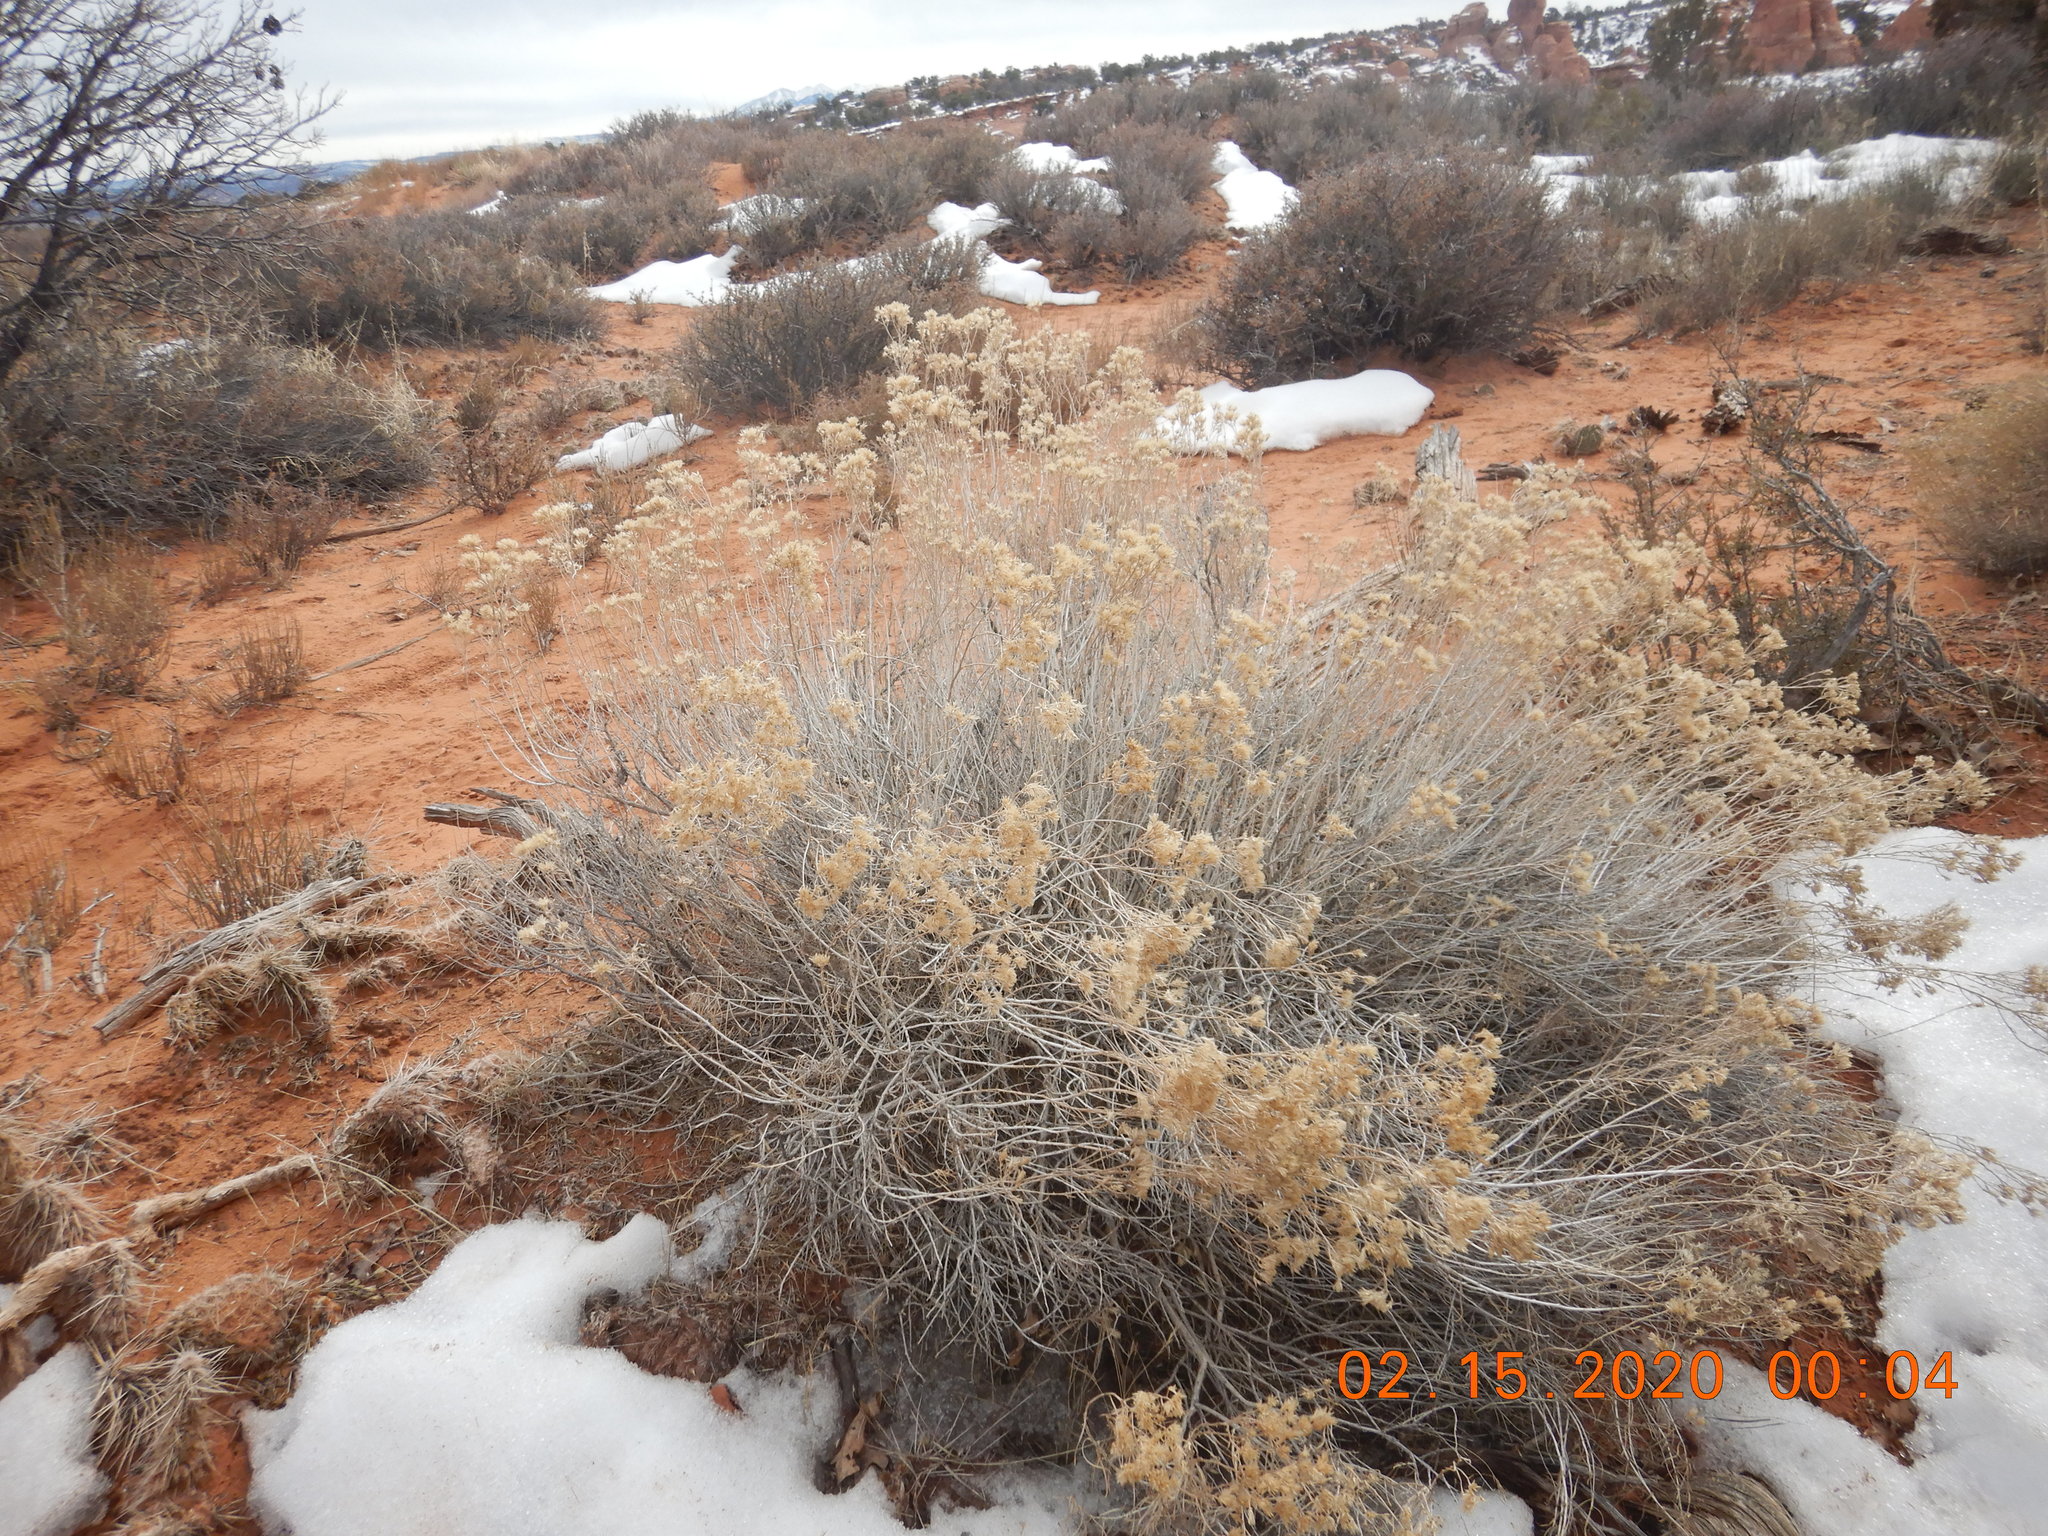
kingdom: Plantae
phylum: Tracheophyta
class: Magnoliopsida
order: Asterales
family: Asteraceae
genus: Ericameria
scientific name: Ericameria nauseosa
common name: Rubber rabbitbrush
